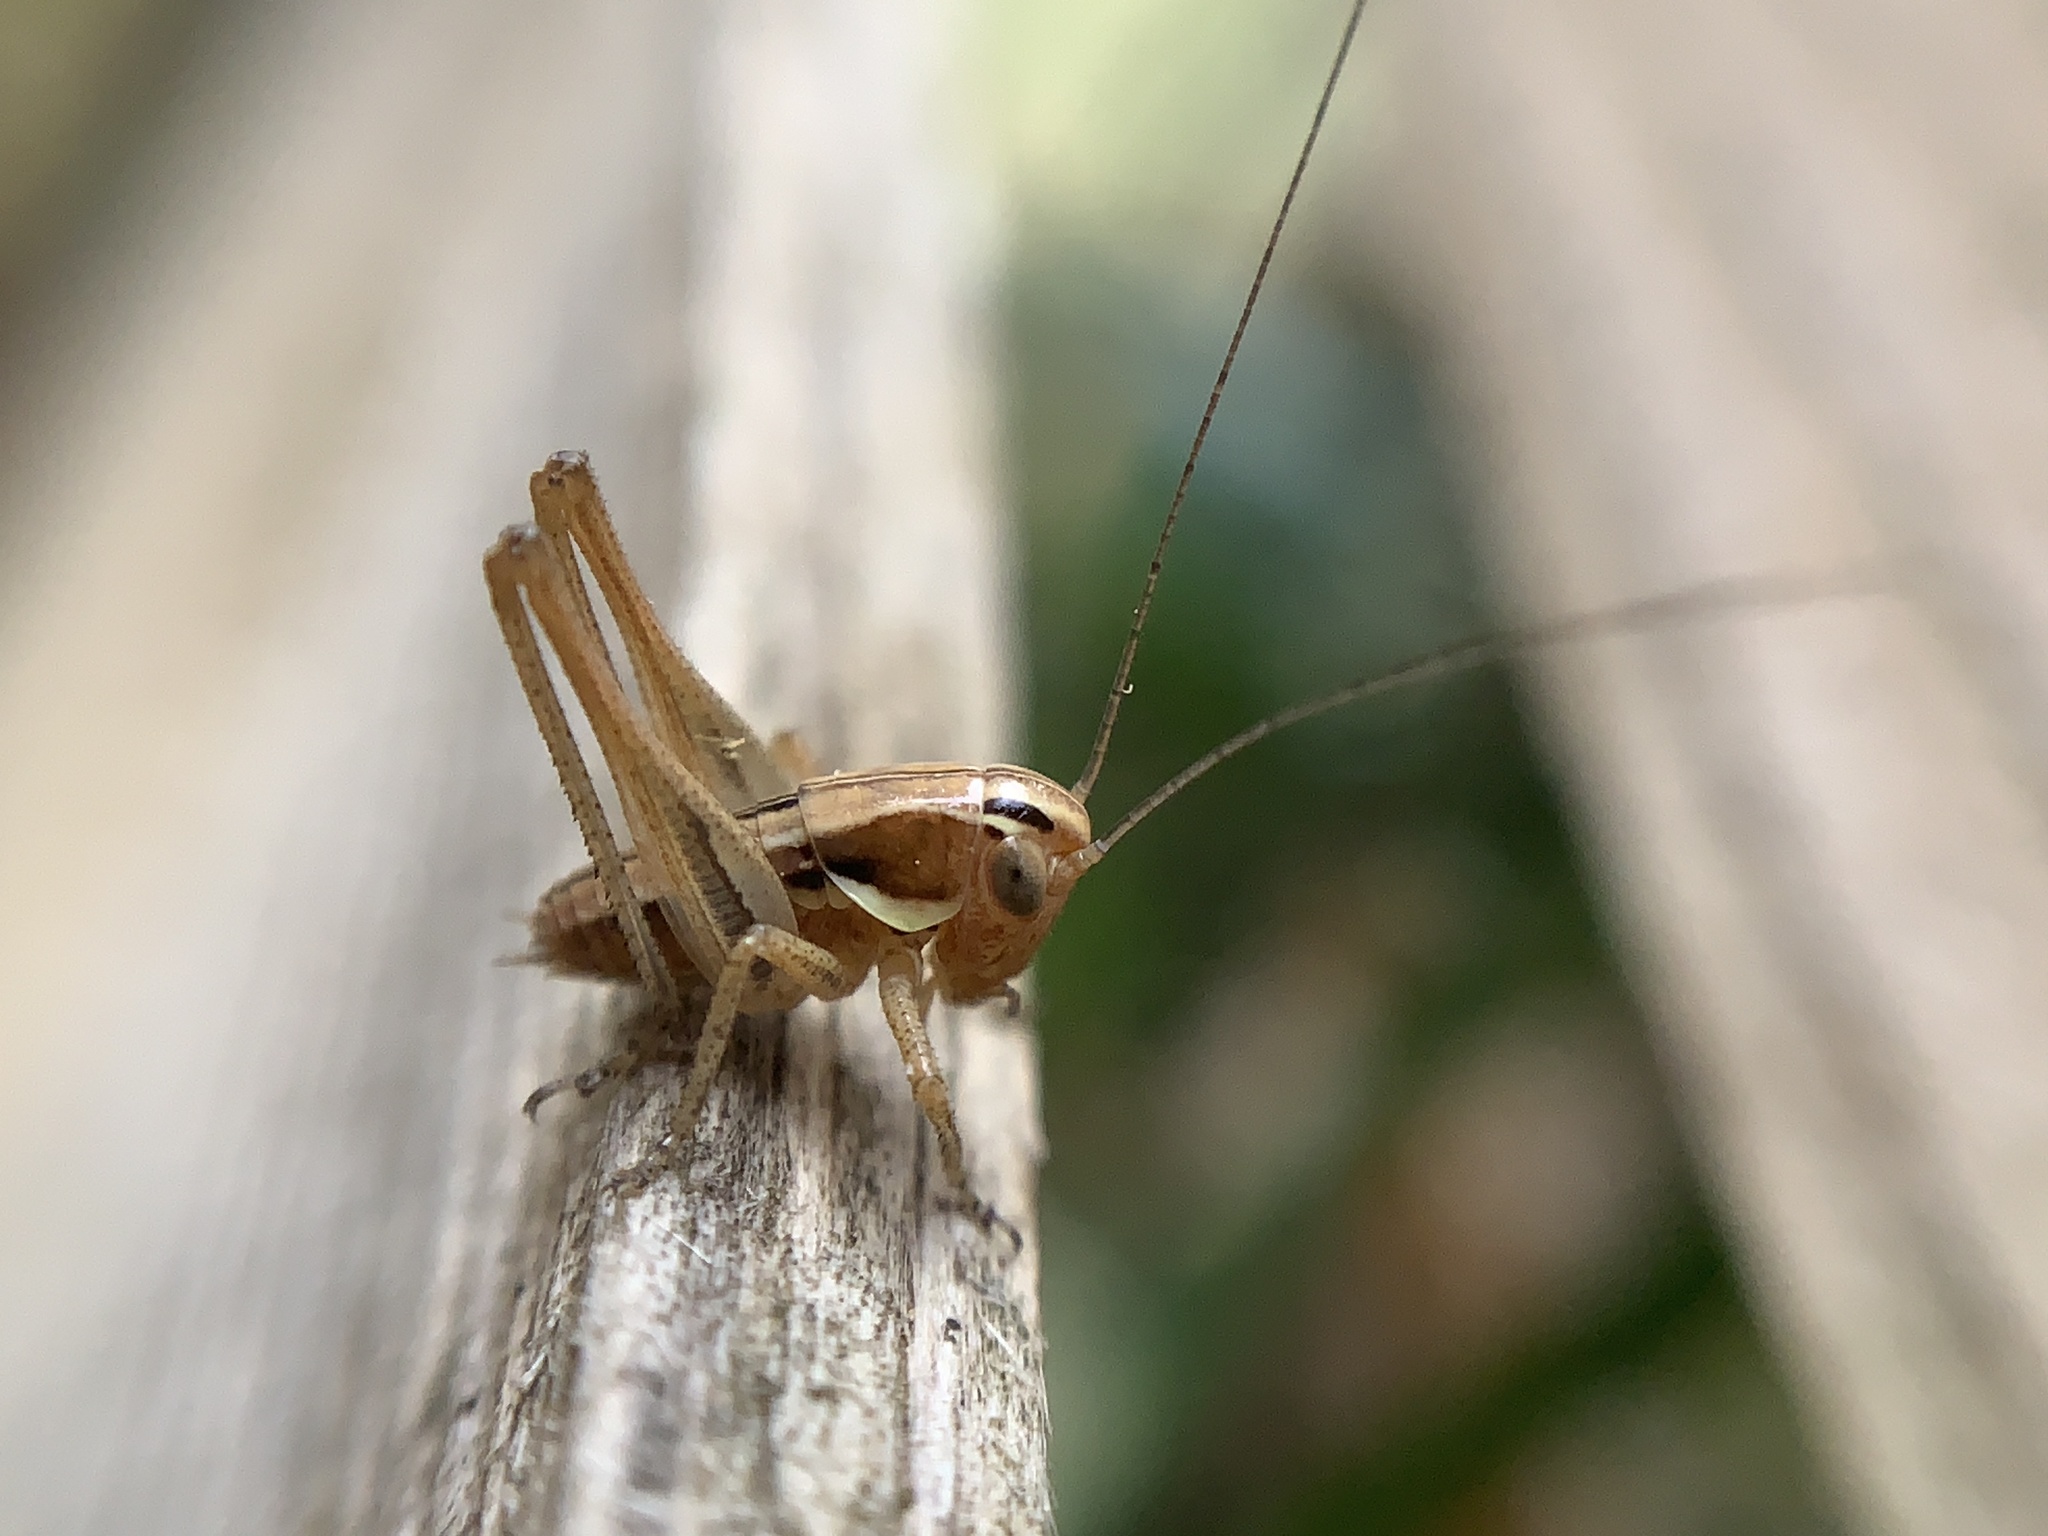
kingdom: Animalia
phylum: Arthropoda
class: Insecta
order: Orthoptera
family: Tettigoniidae
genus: Tessellana
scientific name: Tessellana tessellata
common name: Grasshopper
